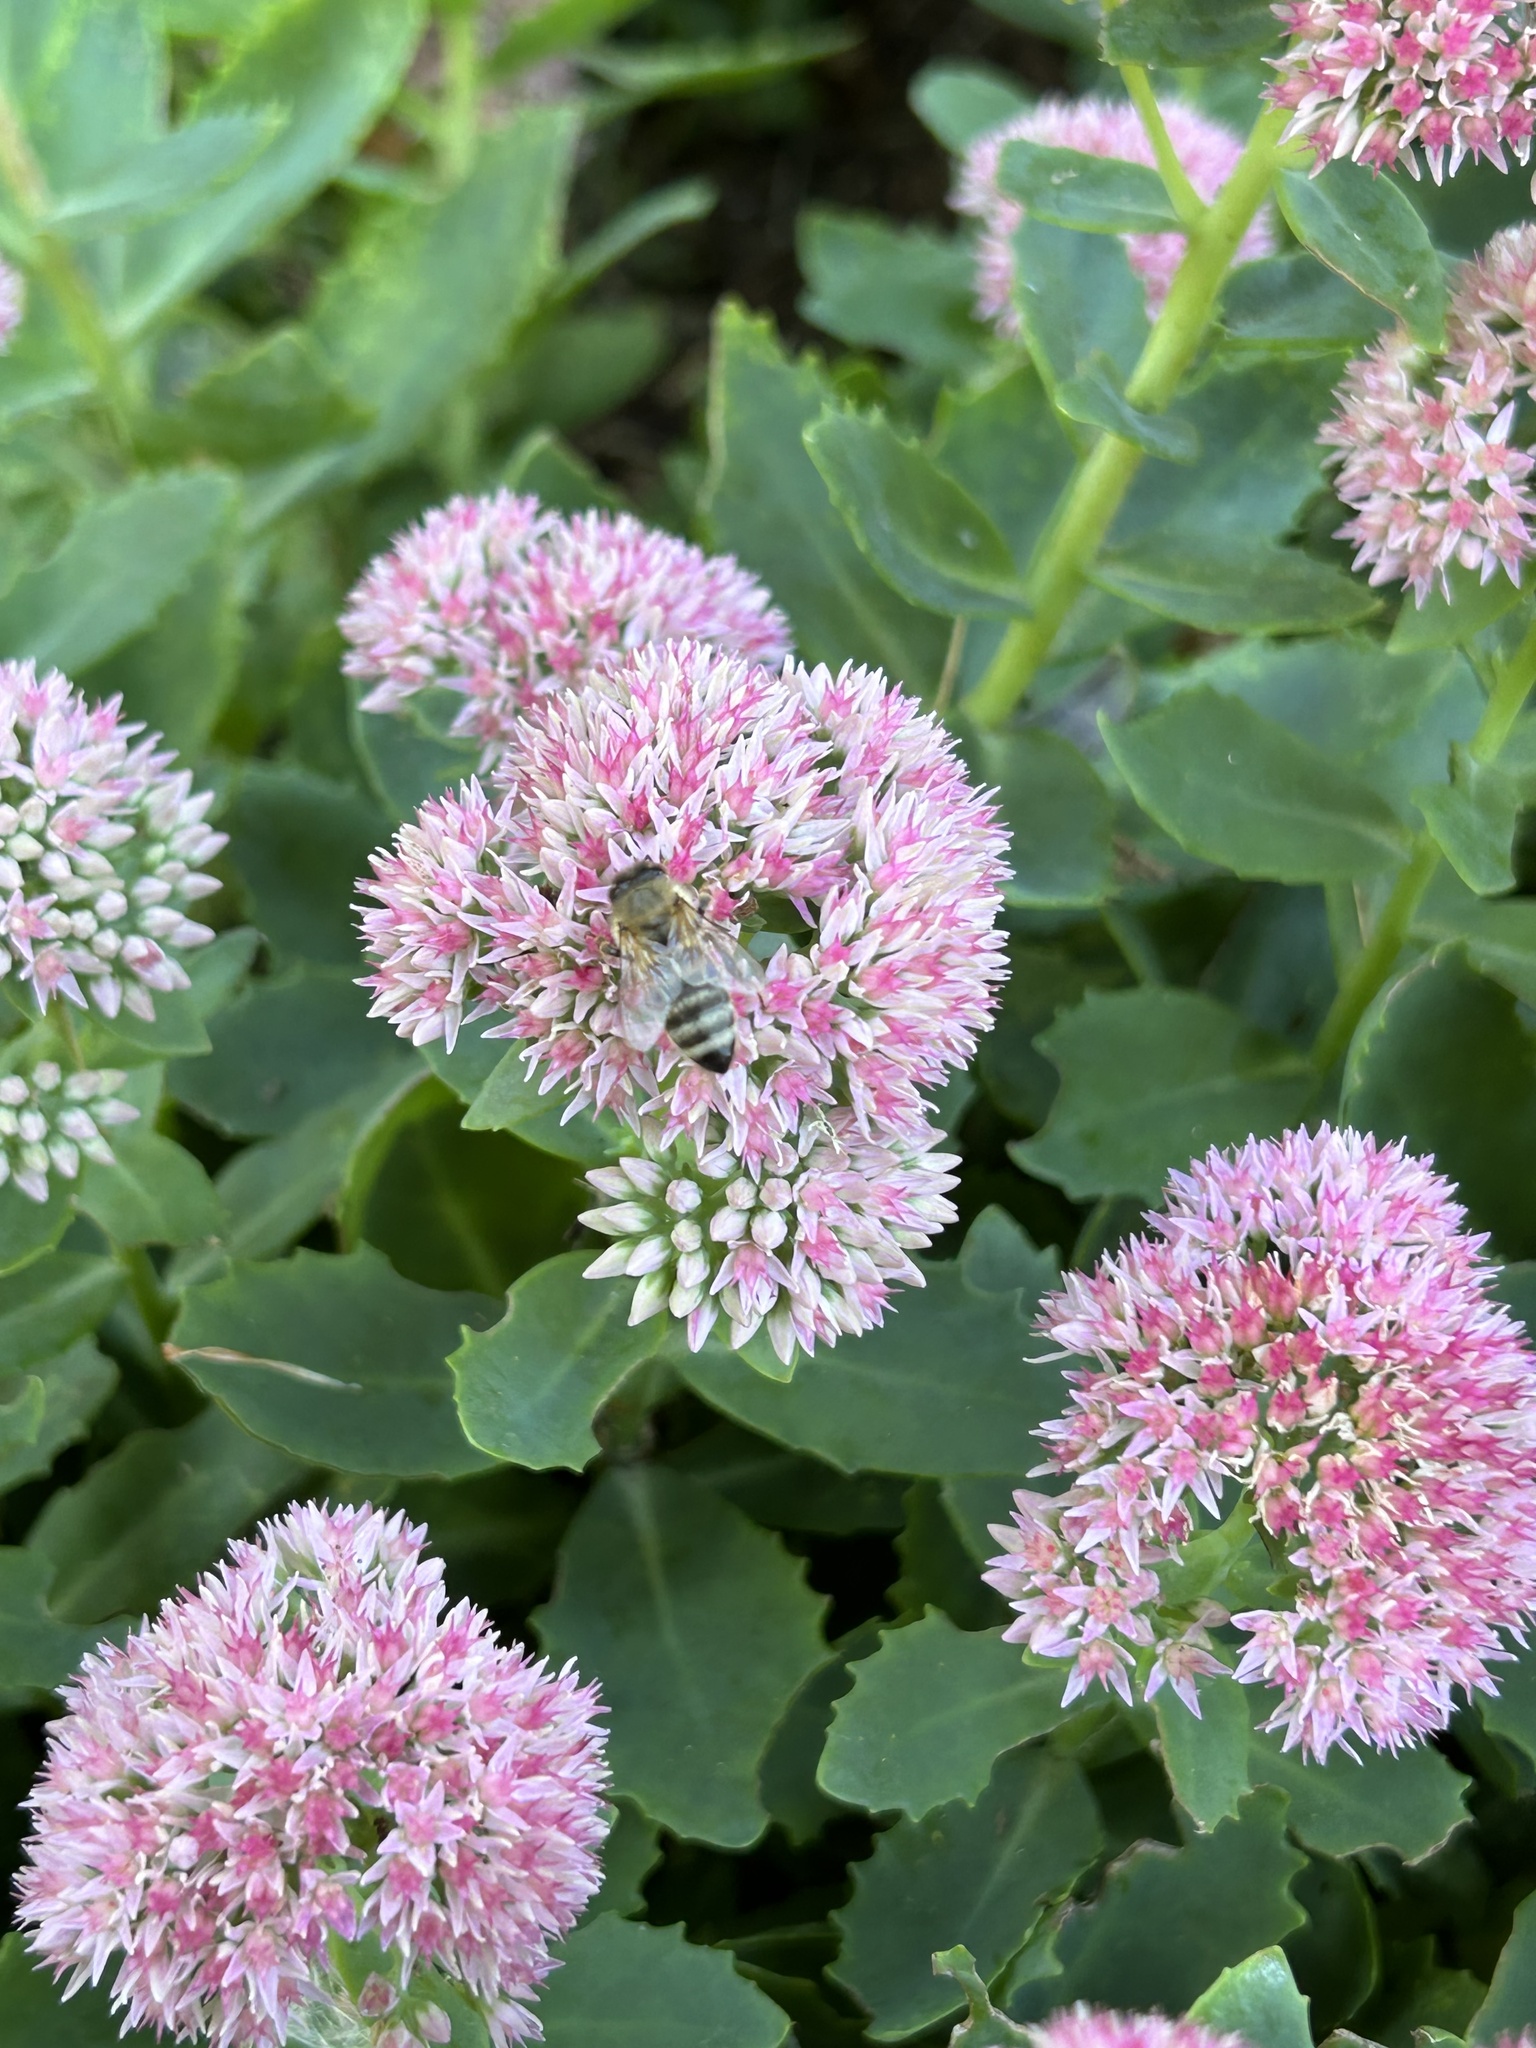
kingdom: Animalia
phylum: Arthropoda
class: Insecta
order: Hymenoptera
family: Apidae
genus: Apis
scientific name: Apis mellifera
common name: Honey bee
